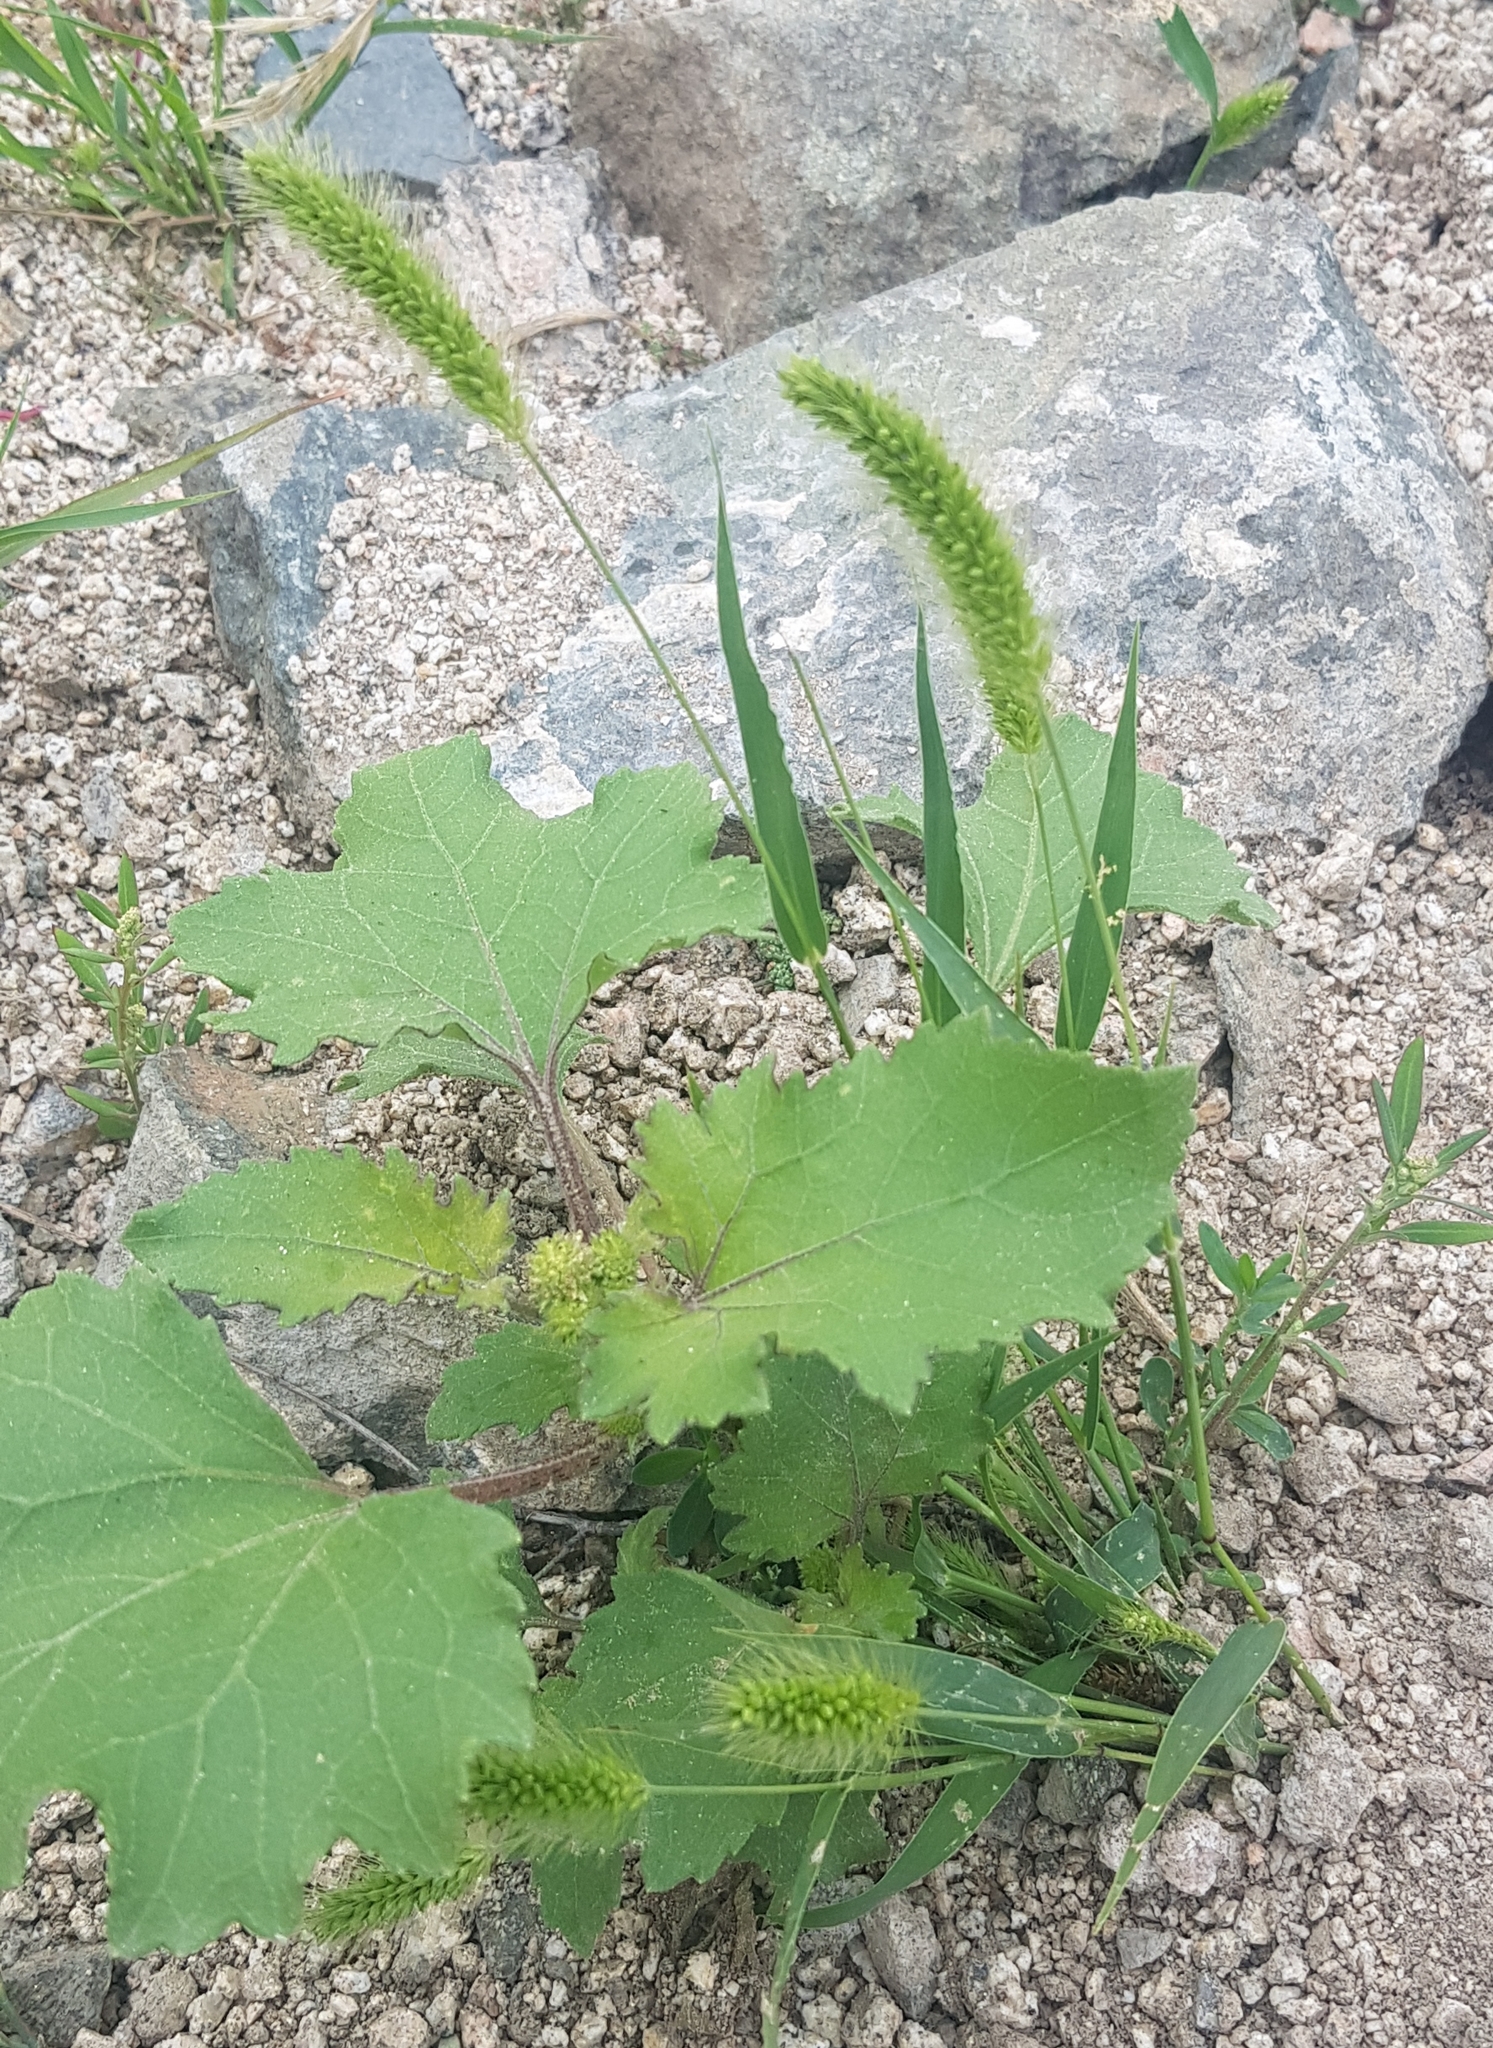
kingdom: Plantae
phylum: Tracheophyta
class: Magnoliopsida
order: Asterales
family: Asteraceae
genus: Xanthium
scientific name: Xanthium strumarium
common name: Rough cocklebur
